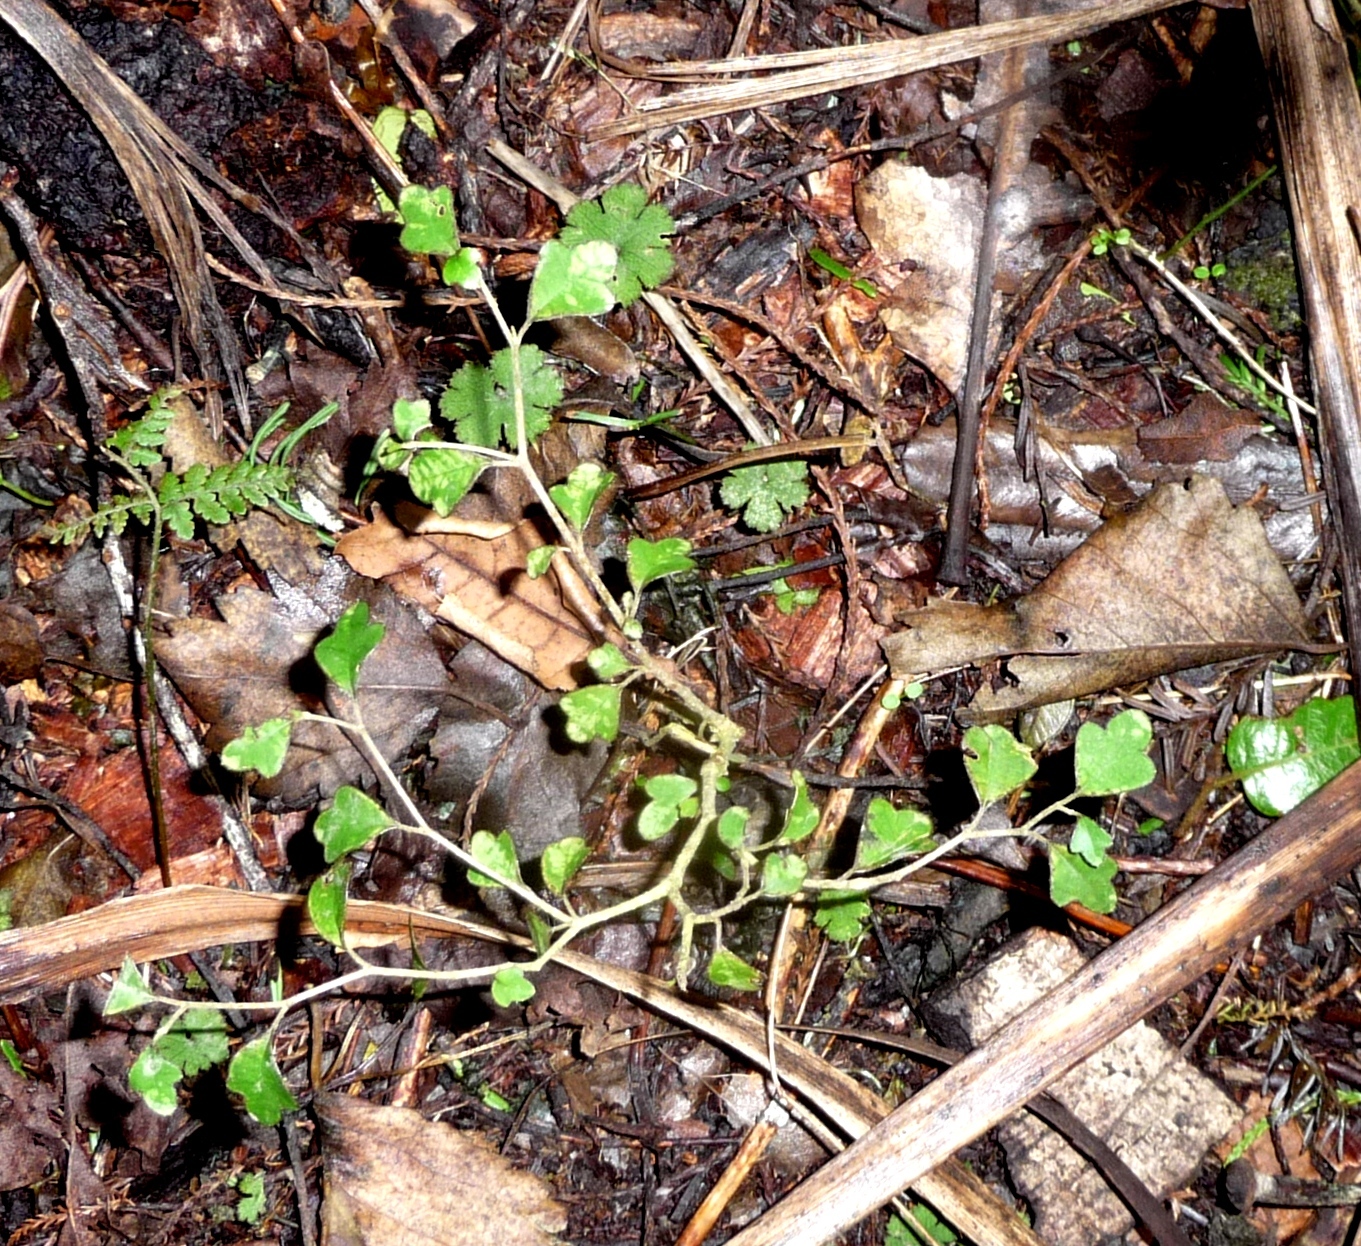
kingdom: Plantae
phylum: Tracheophyta
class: Magnoliopsida
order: Apiales
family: Pennantiaceae
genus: Pennantia
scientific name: Pennantia corymbosa
